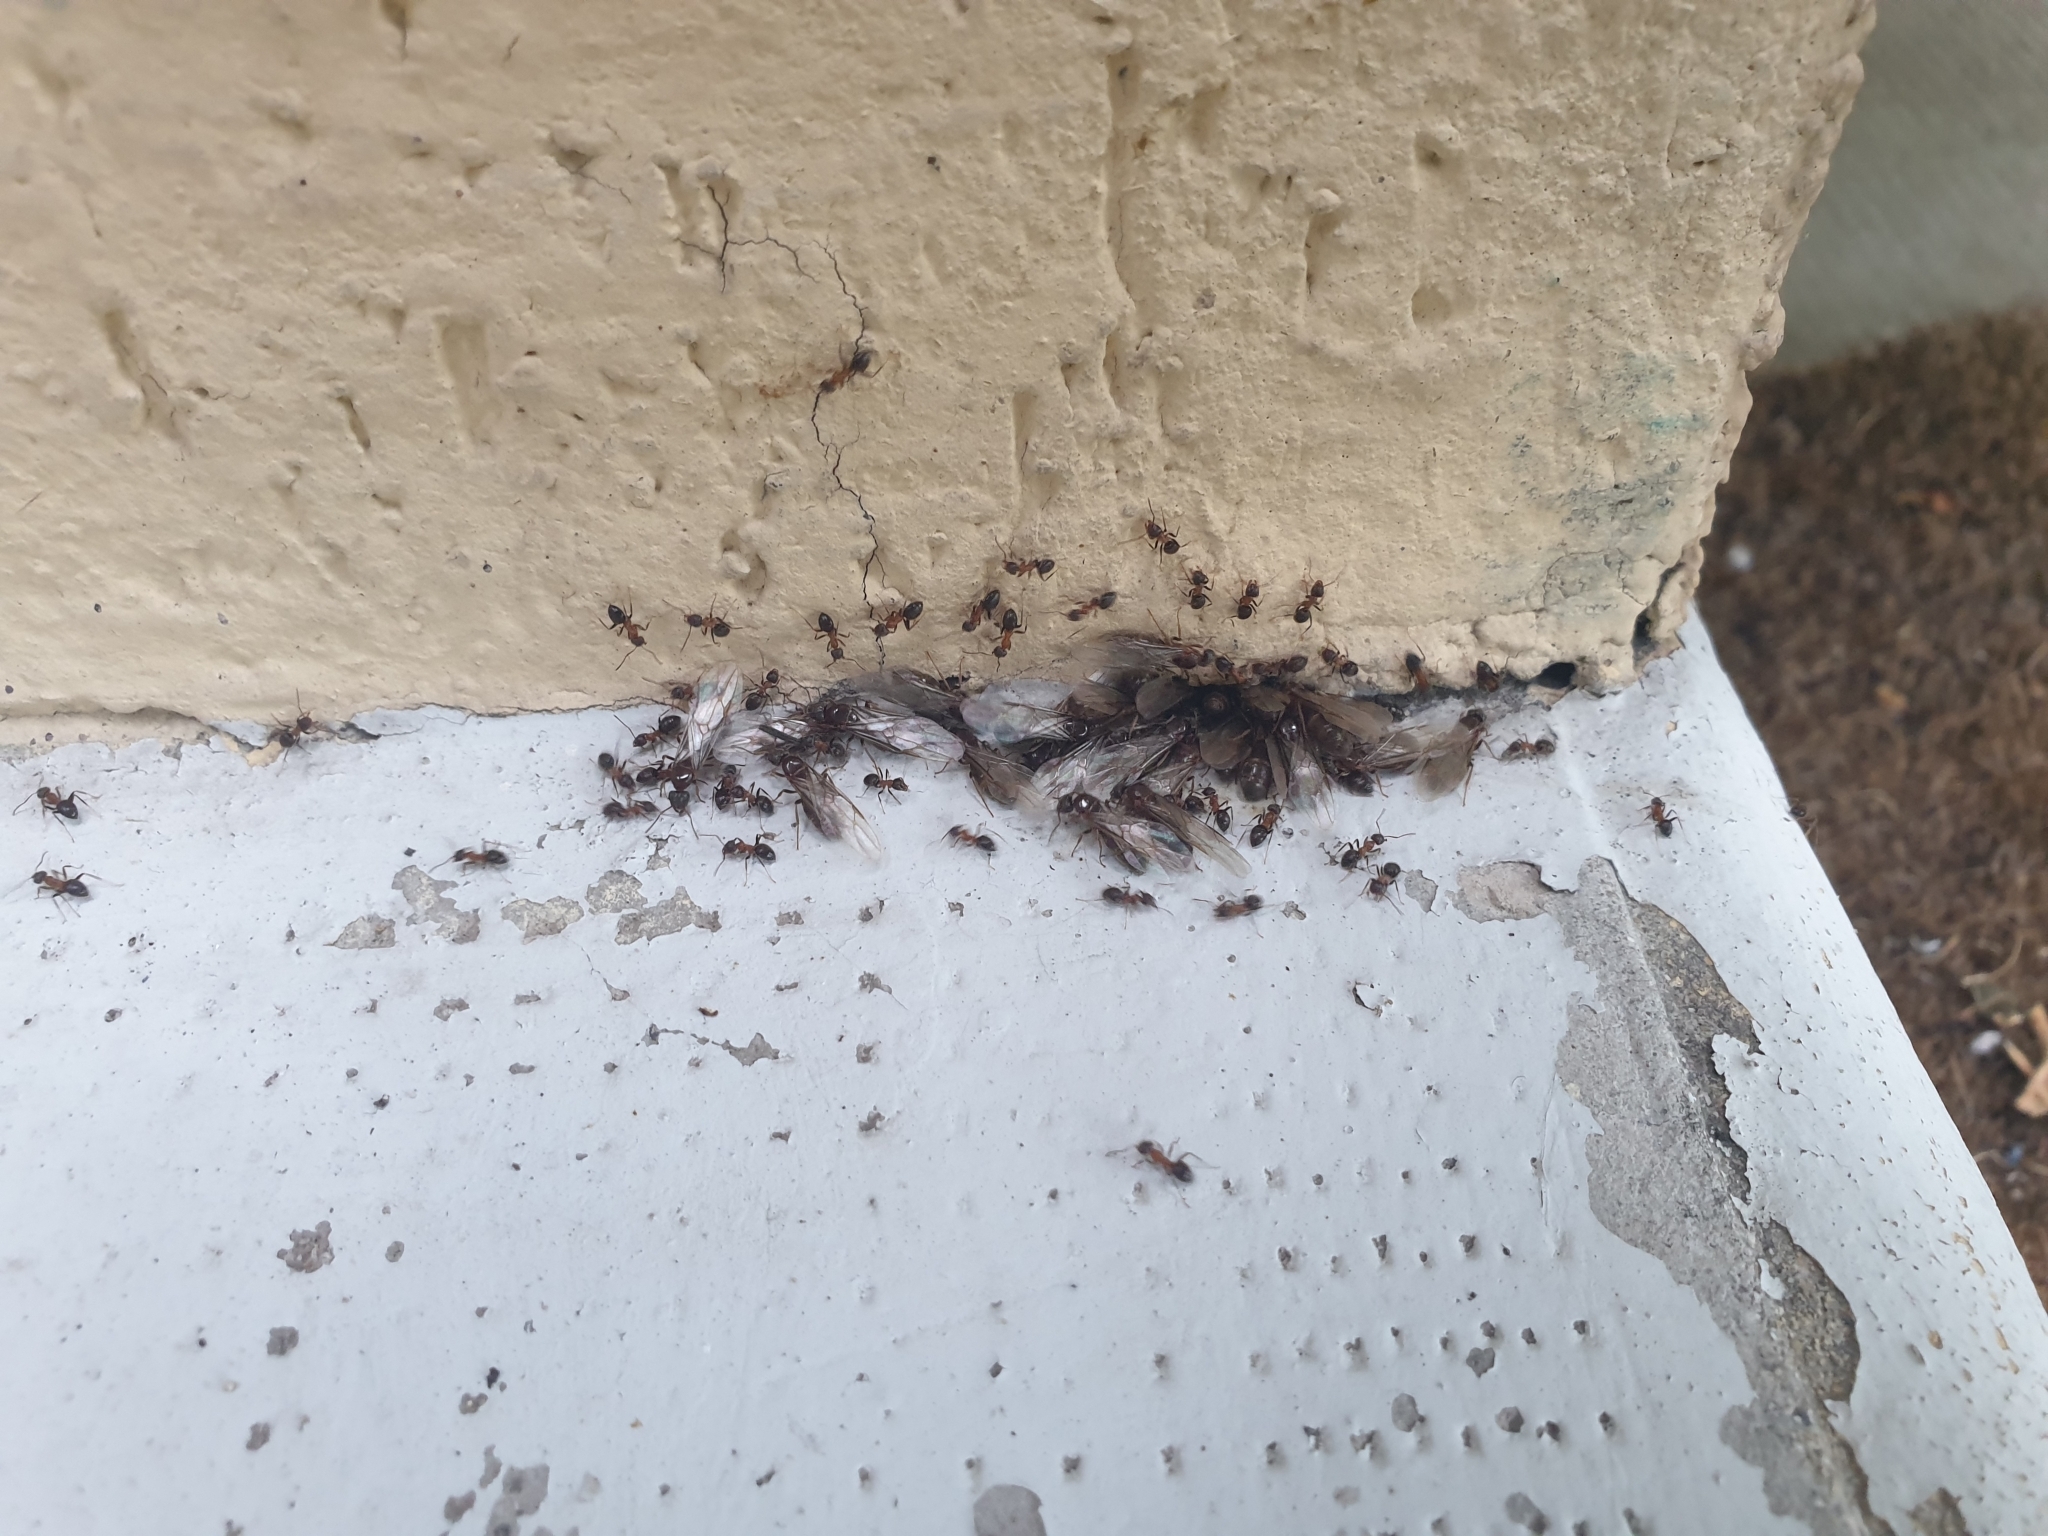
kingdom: Animalia
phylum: Arthropoda
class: Insecta
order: Hymenoptera
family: Formicidae
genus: Lasius
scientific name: Lasius emarginatus
